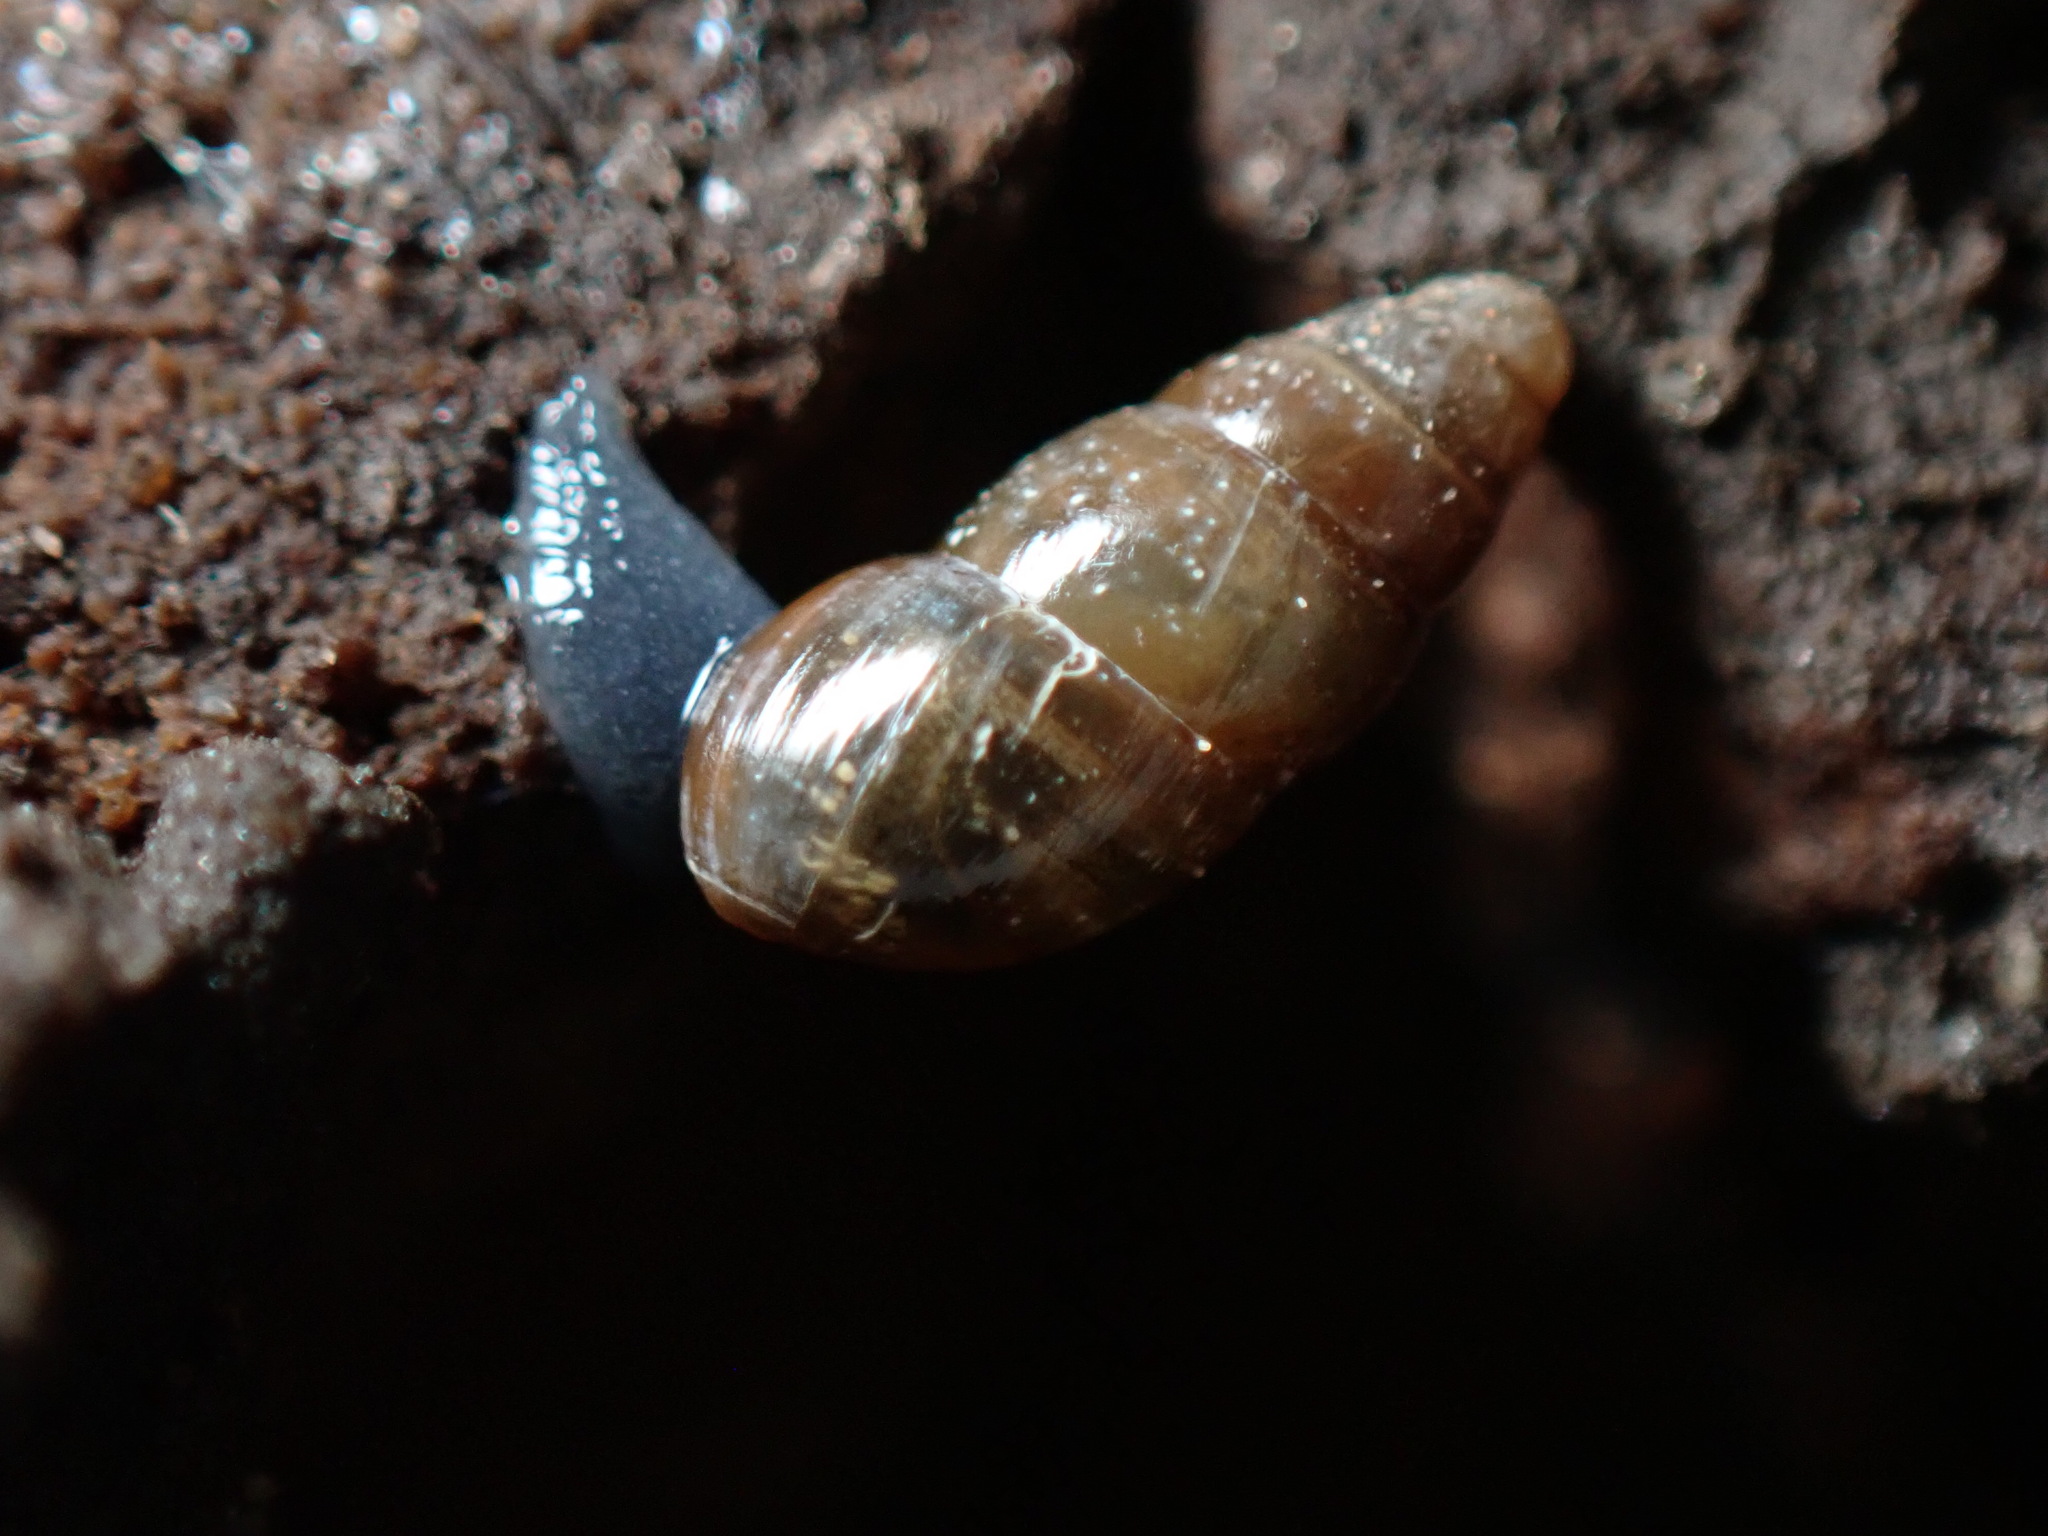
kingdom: Animalia
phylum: Mollusca
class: Gastropoda
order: Stylommatophora
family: Cochlicopidae
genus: Cochlicopa
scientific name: Cochlicopa lubrica
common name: Glossy pillar snail
